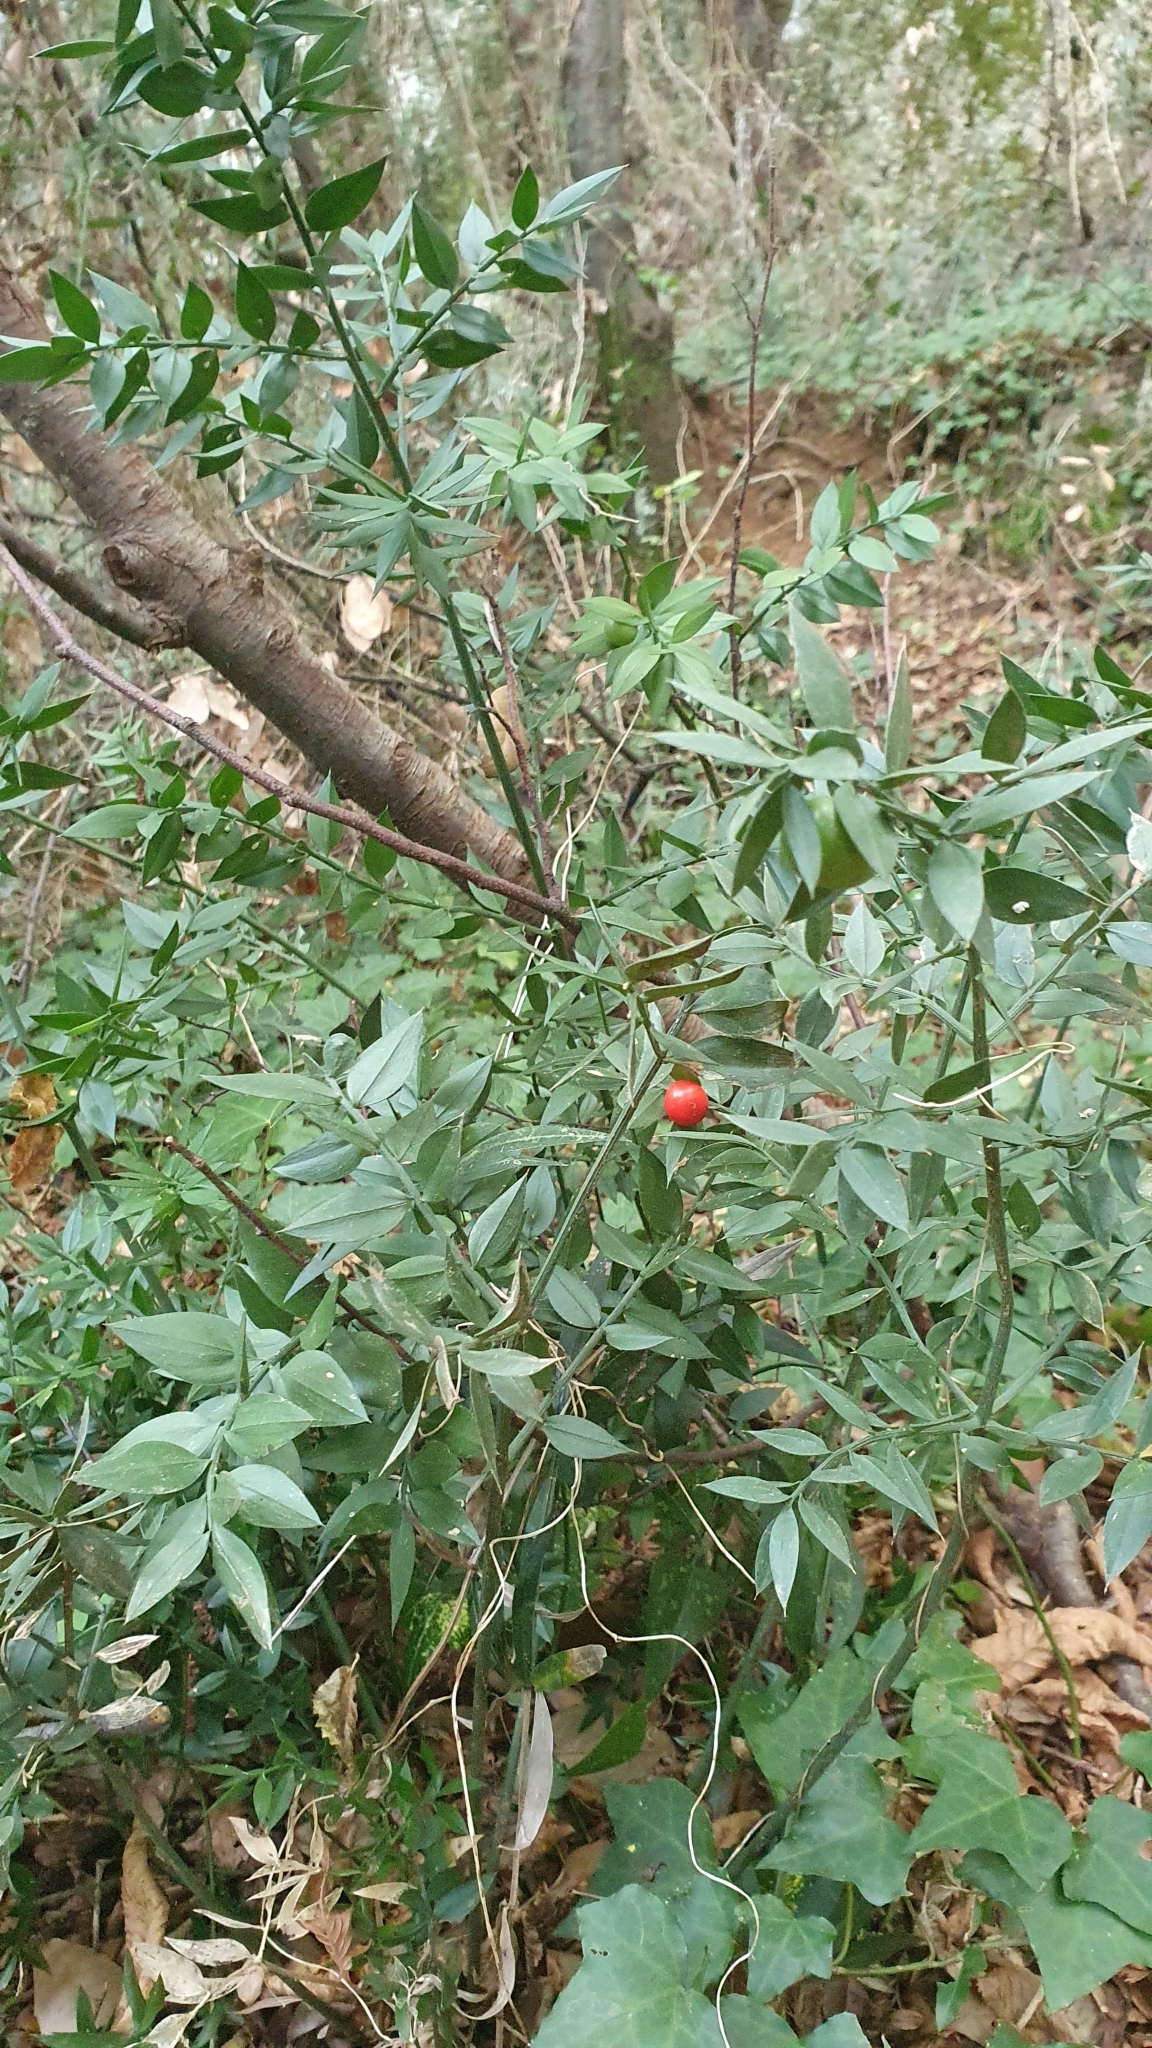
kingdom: Plantae
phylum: Tracheophyta
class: Liliopsida
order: Asparagales
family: Asparagaceae
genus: Ruscus
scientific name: Ruscus aculeatus
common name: Butcher's-broom
